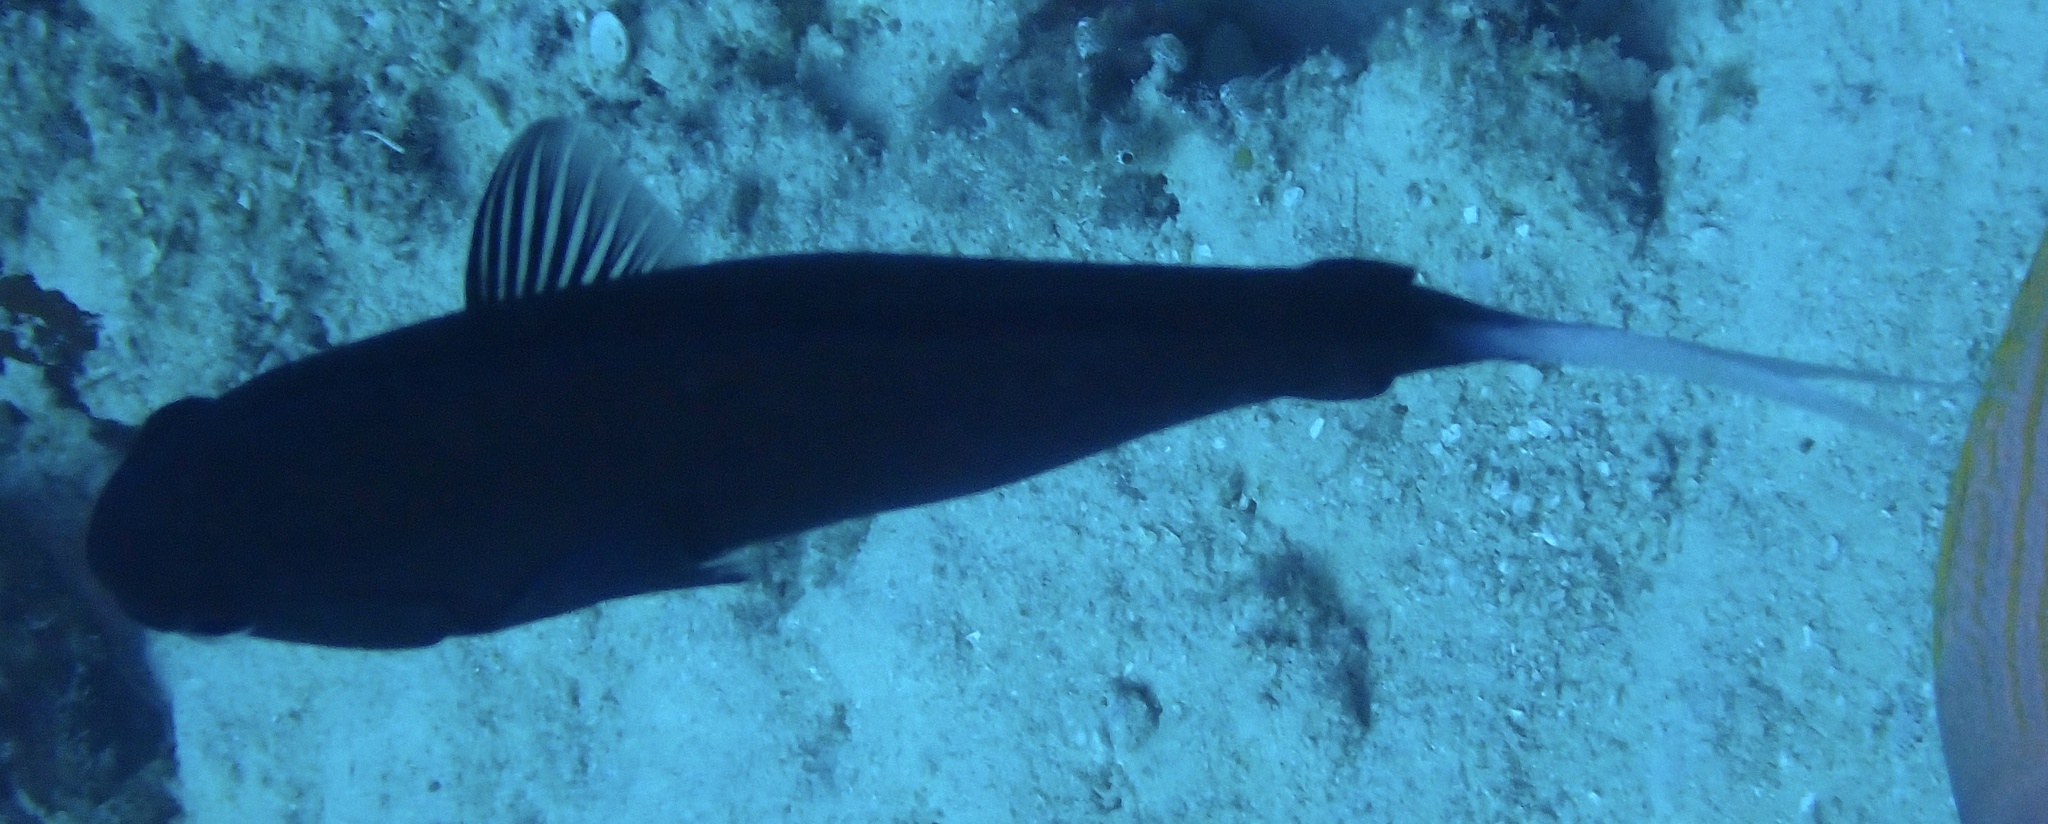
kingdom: Animalia
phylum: Chordata
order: Perciformes
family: Acanthuridae
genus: Acanthurus
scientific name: Acanthurus thompsoni
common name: Chocolate surgeonfish
